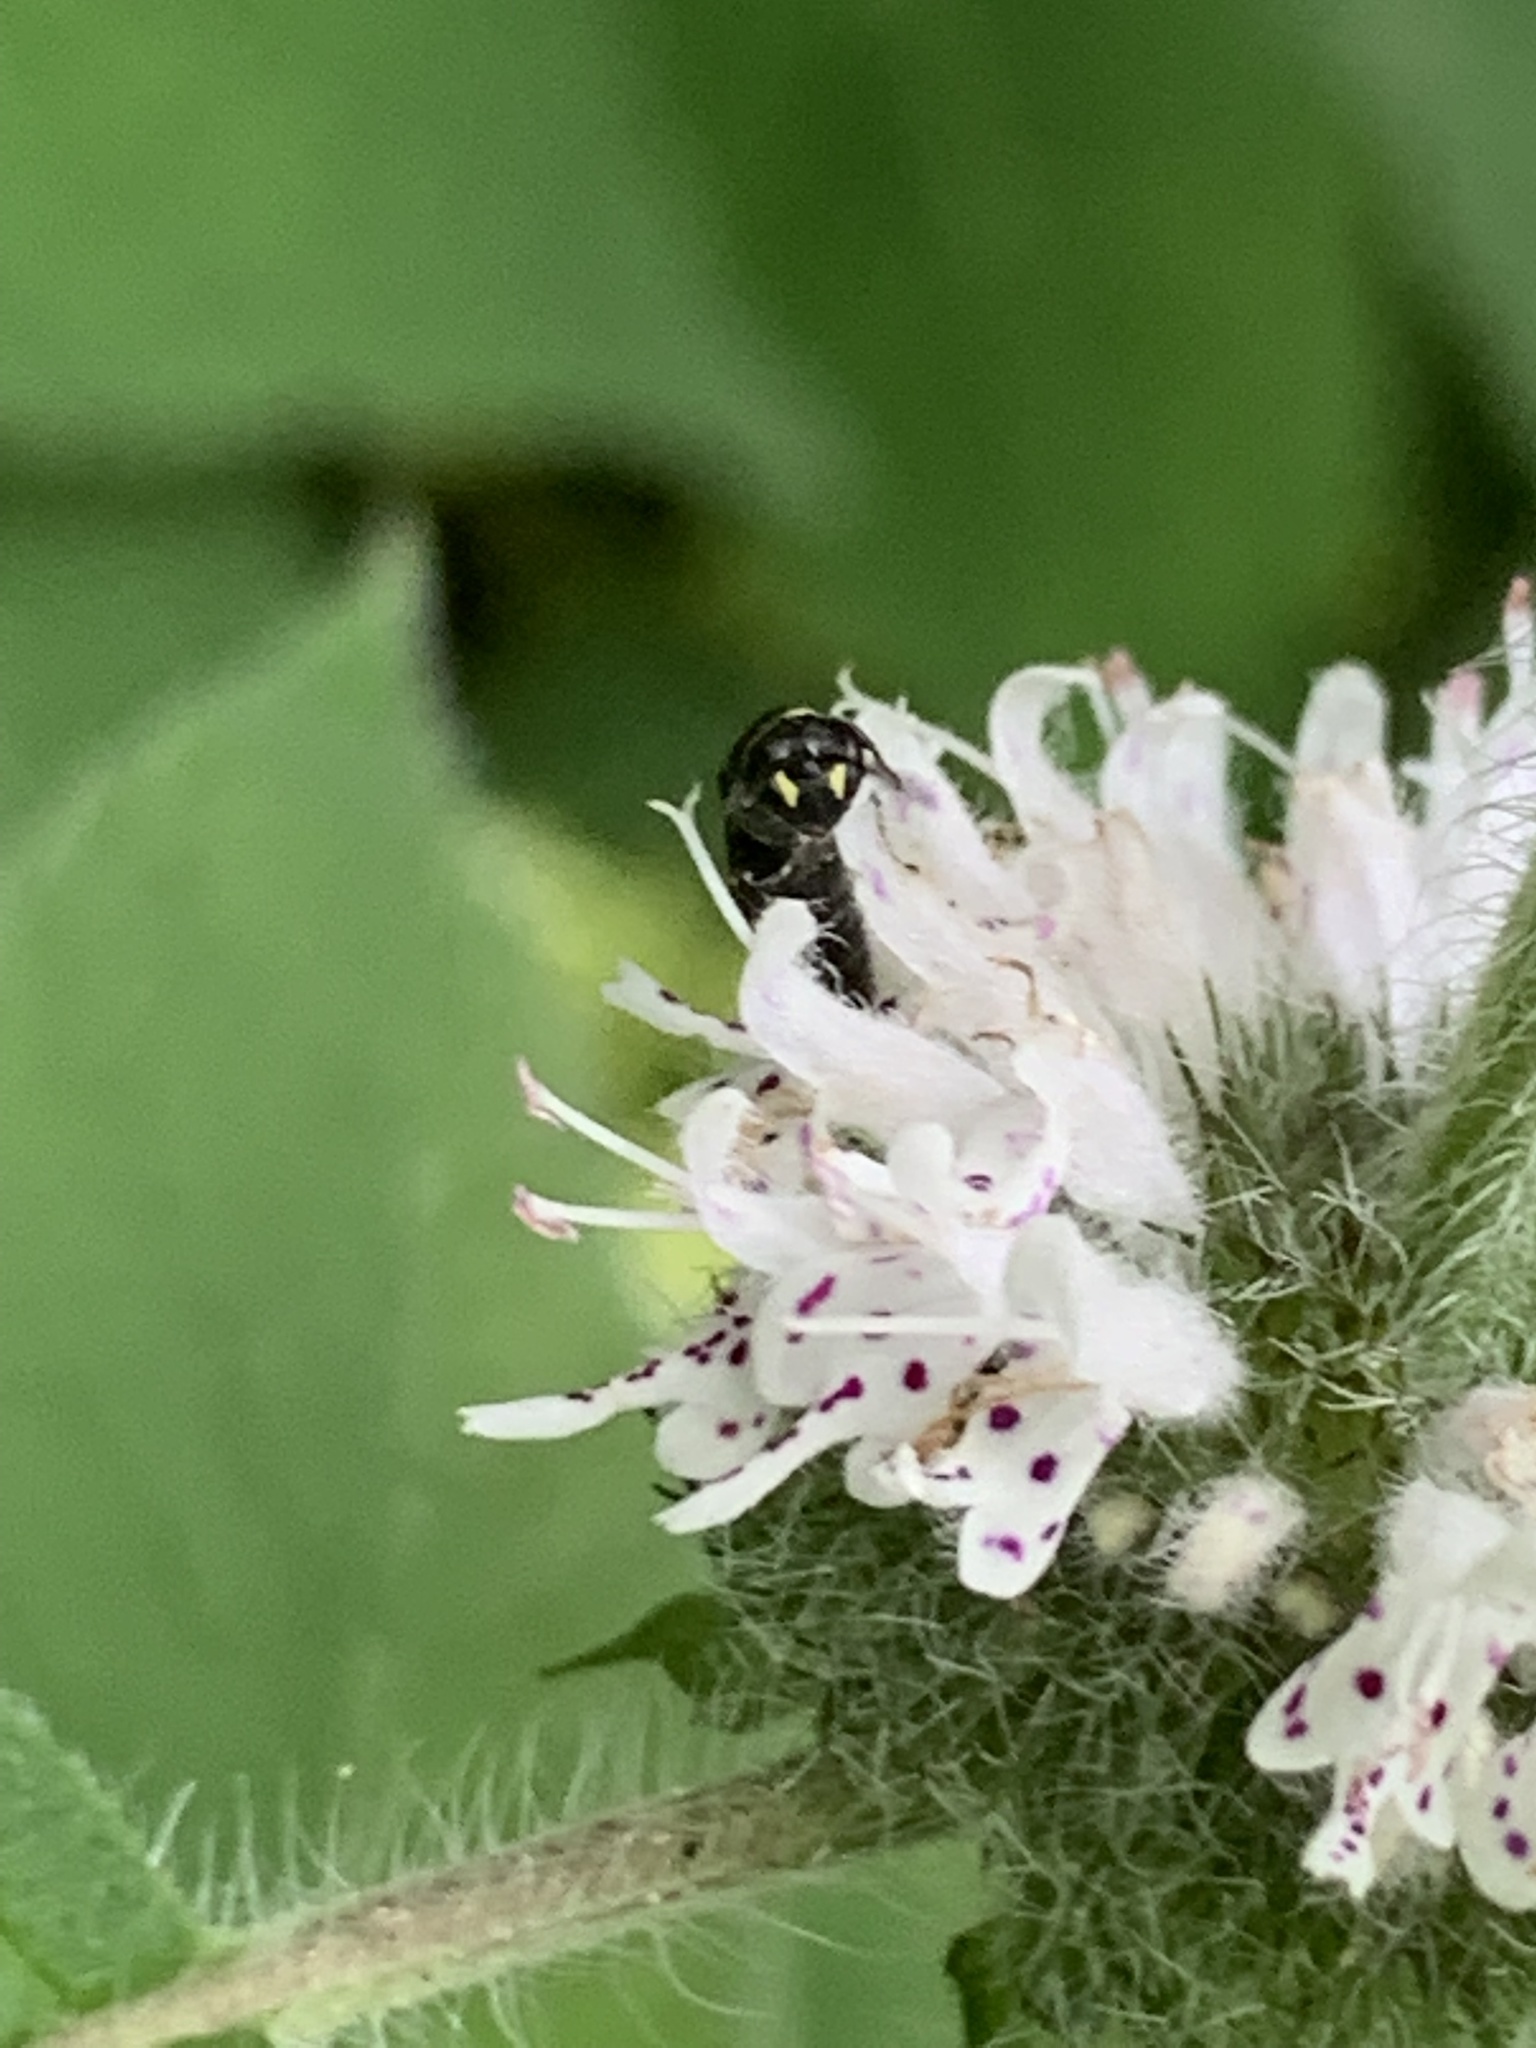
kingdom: Animalia
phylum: Arthropoda
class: Insecta
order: Hymenoptera
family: Colletidae
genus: Hylaeus
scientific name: Hylaeus modestus
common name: Yellow-faced bee
